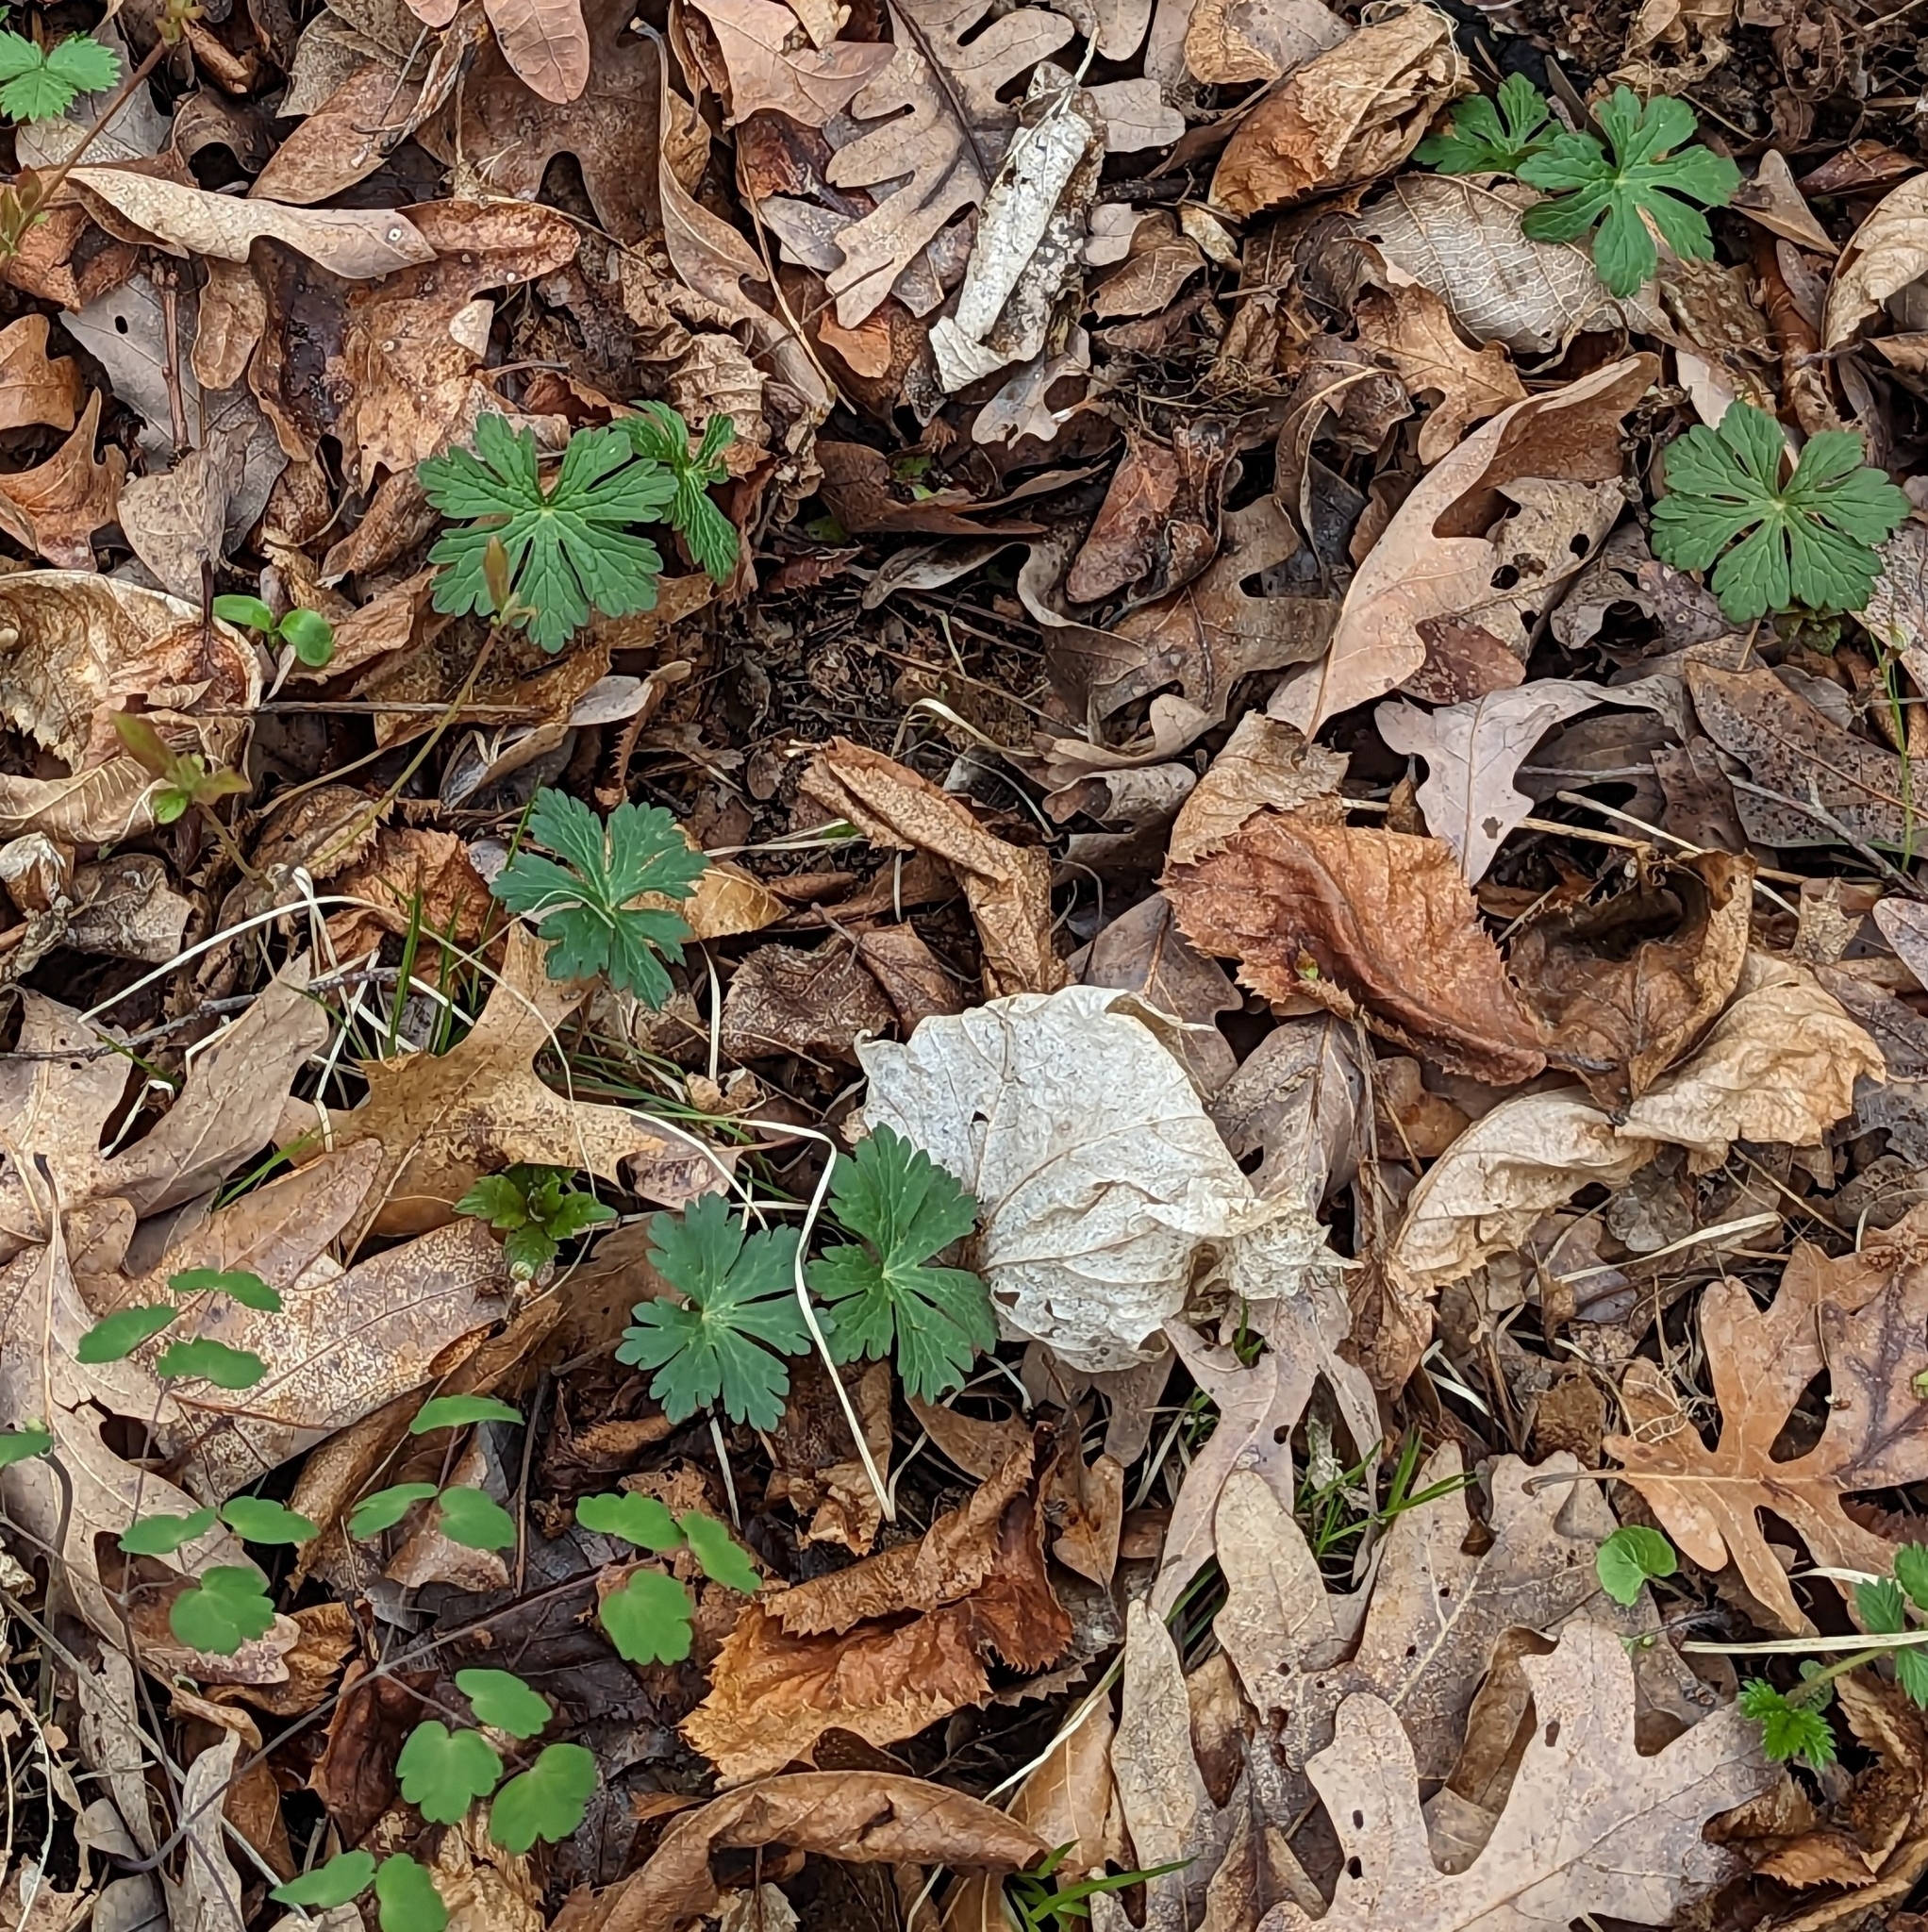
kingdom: Plantae
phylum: Tracheophyta
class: Magnoliopsida
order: Geraniales
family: Geraniaceae
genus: Geranium
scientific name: Geranium maculatum
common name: Spotted geranium
